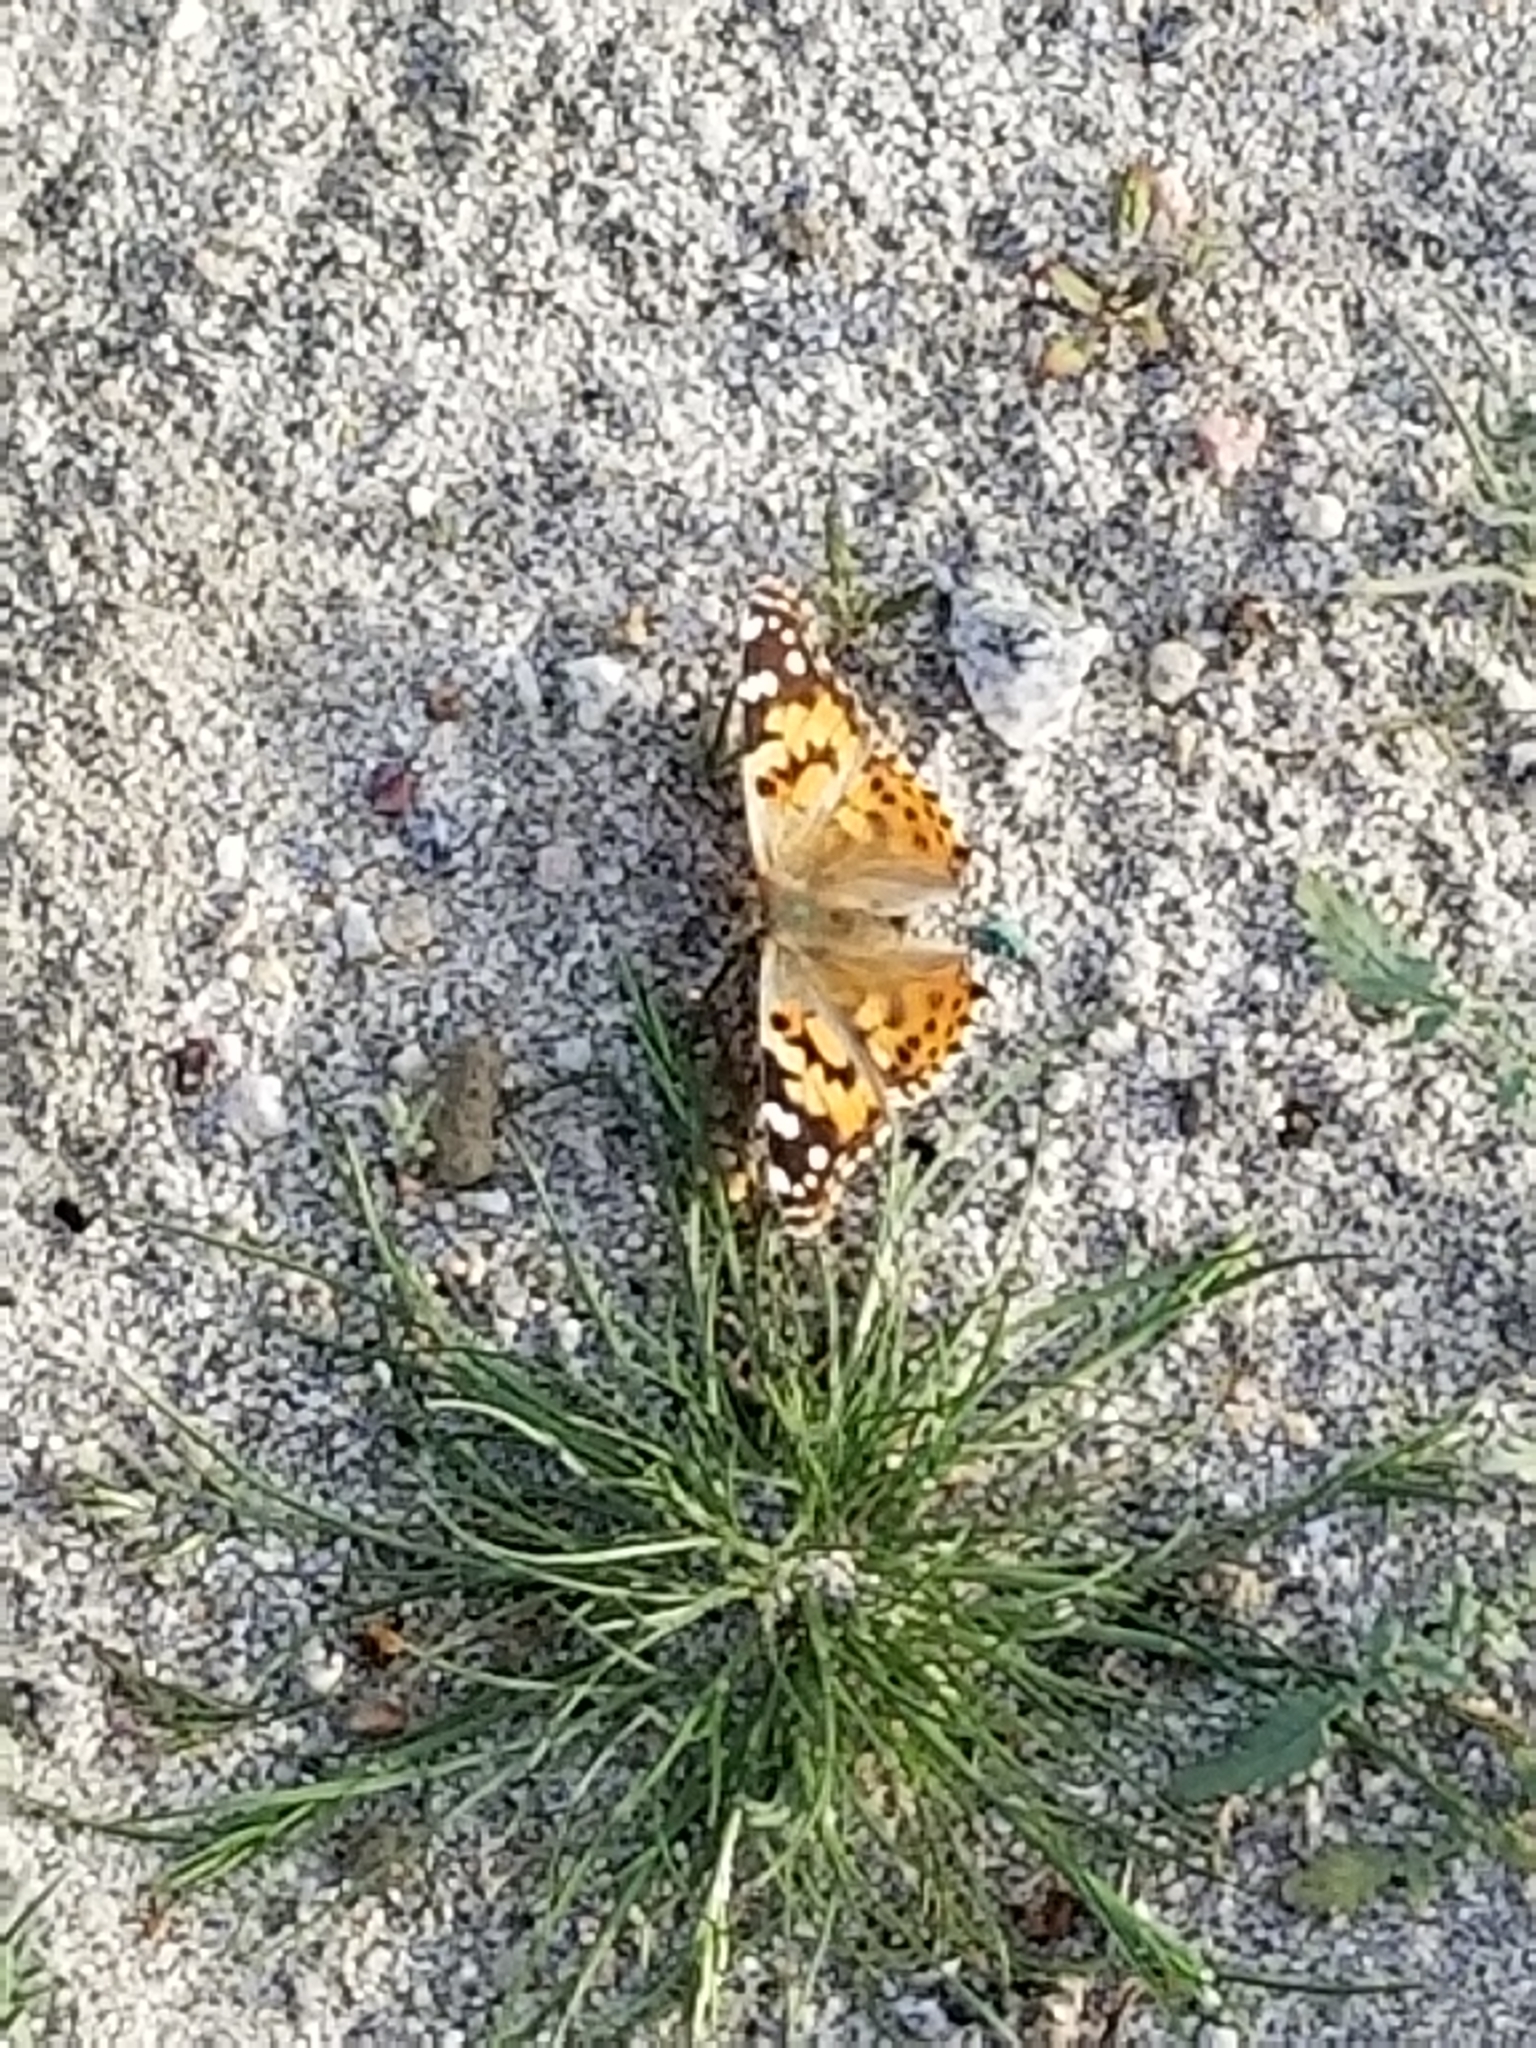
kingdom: Animalia
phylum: Arthropoda
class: Insecta
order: Lepidoptera
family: Nymphalidae
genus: Vanessa
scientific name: Vanessa cardui
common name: Painted lady
